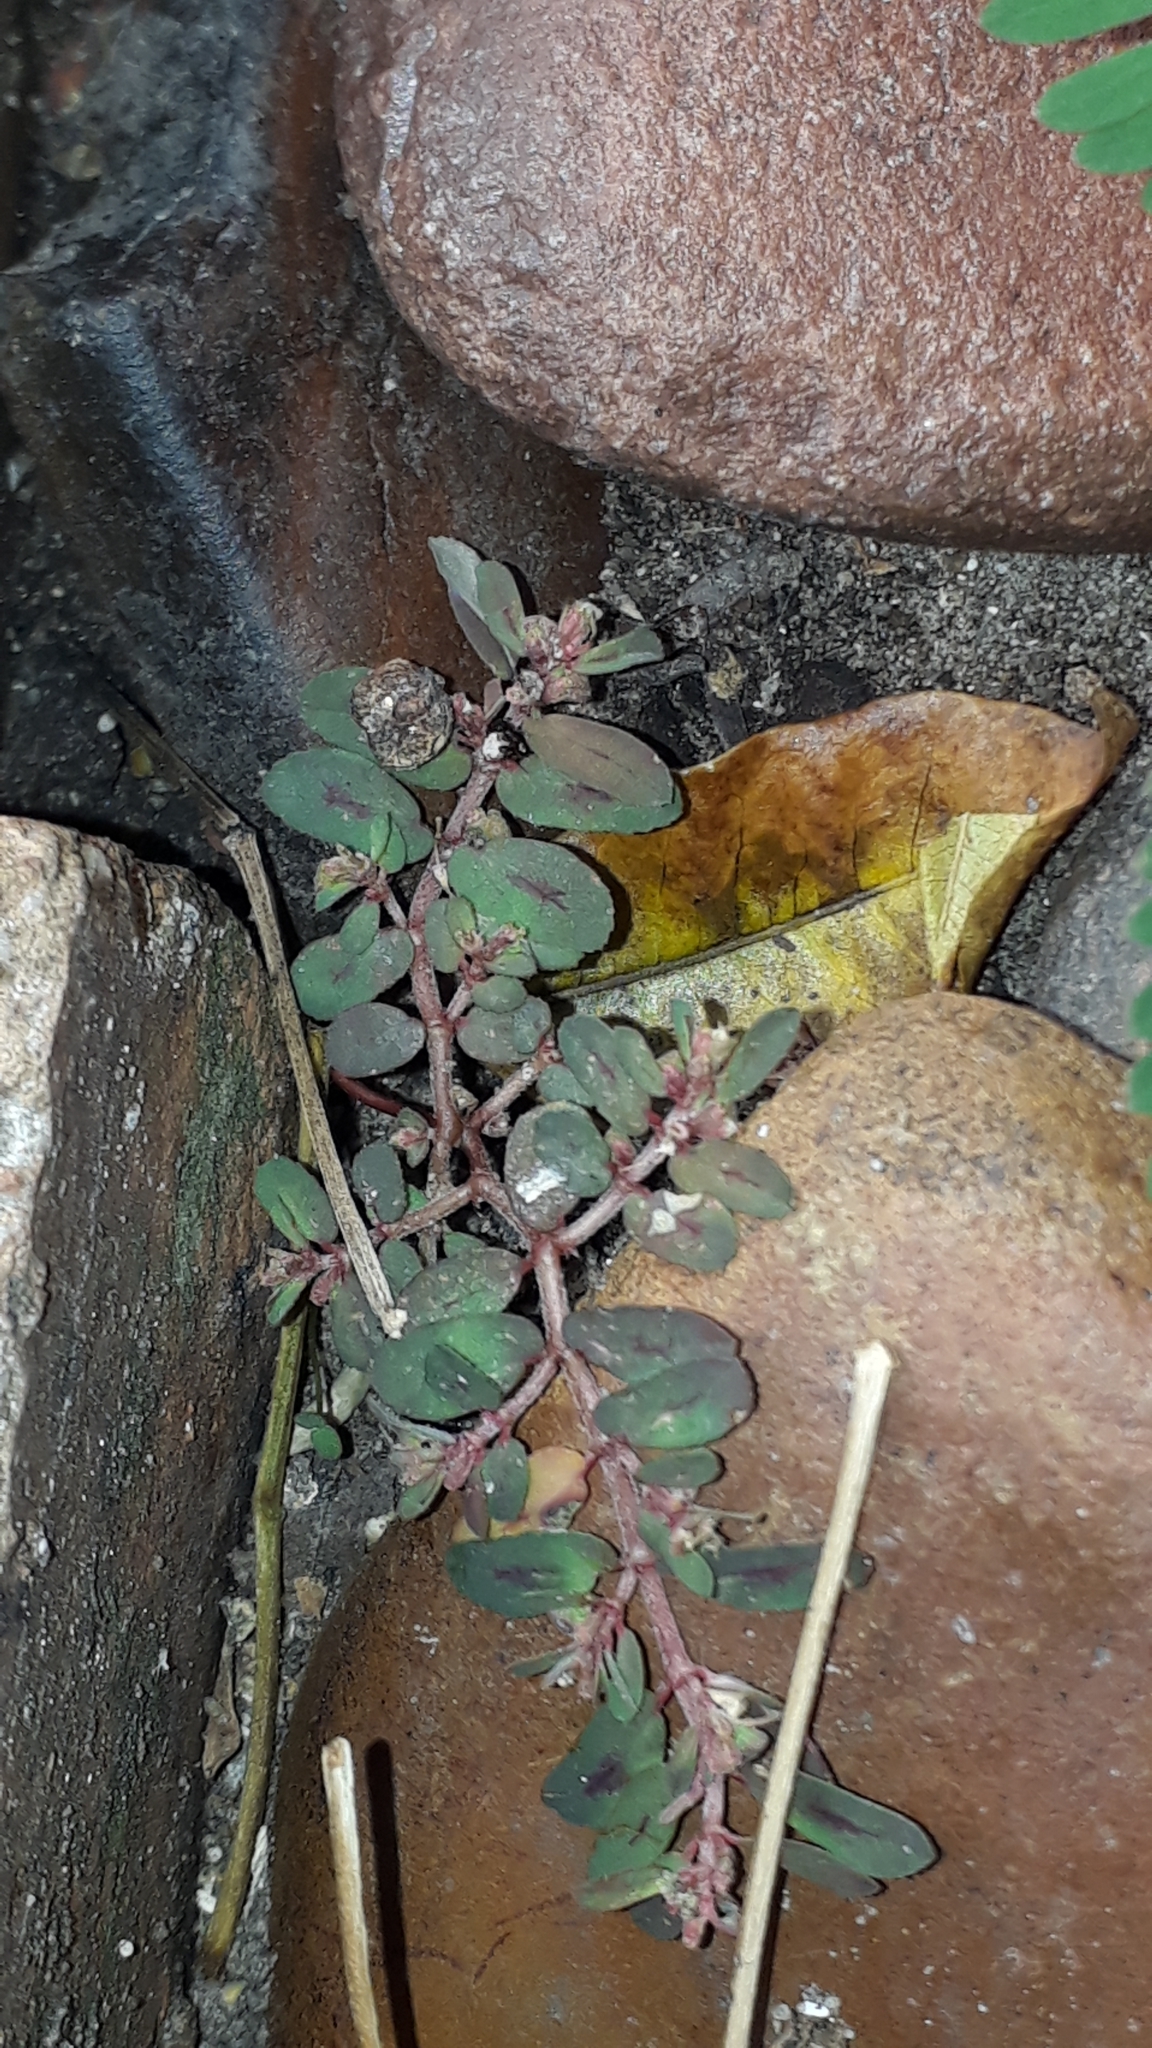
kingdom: Plantae
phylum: Tracheophyta
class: Magnoliopsida
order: Malpighiales
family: Euphorbiaceae
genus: Euphorbia
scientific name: Euphorbia maculata
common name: Spotted spurge
